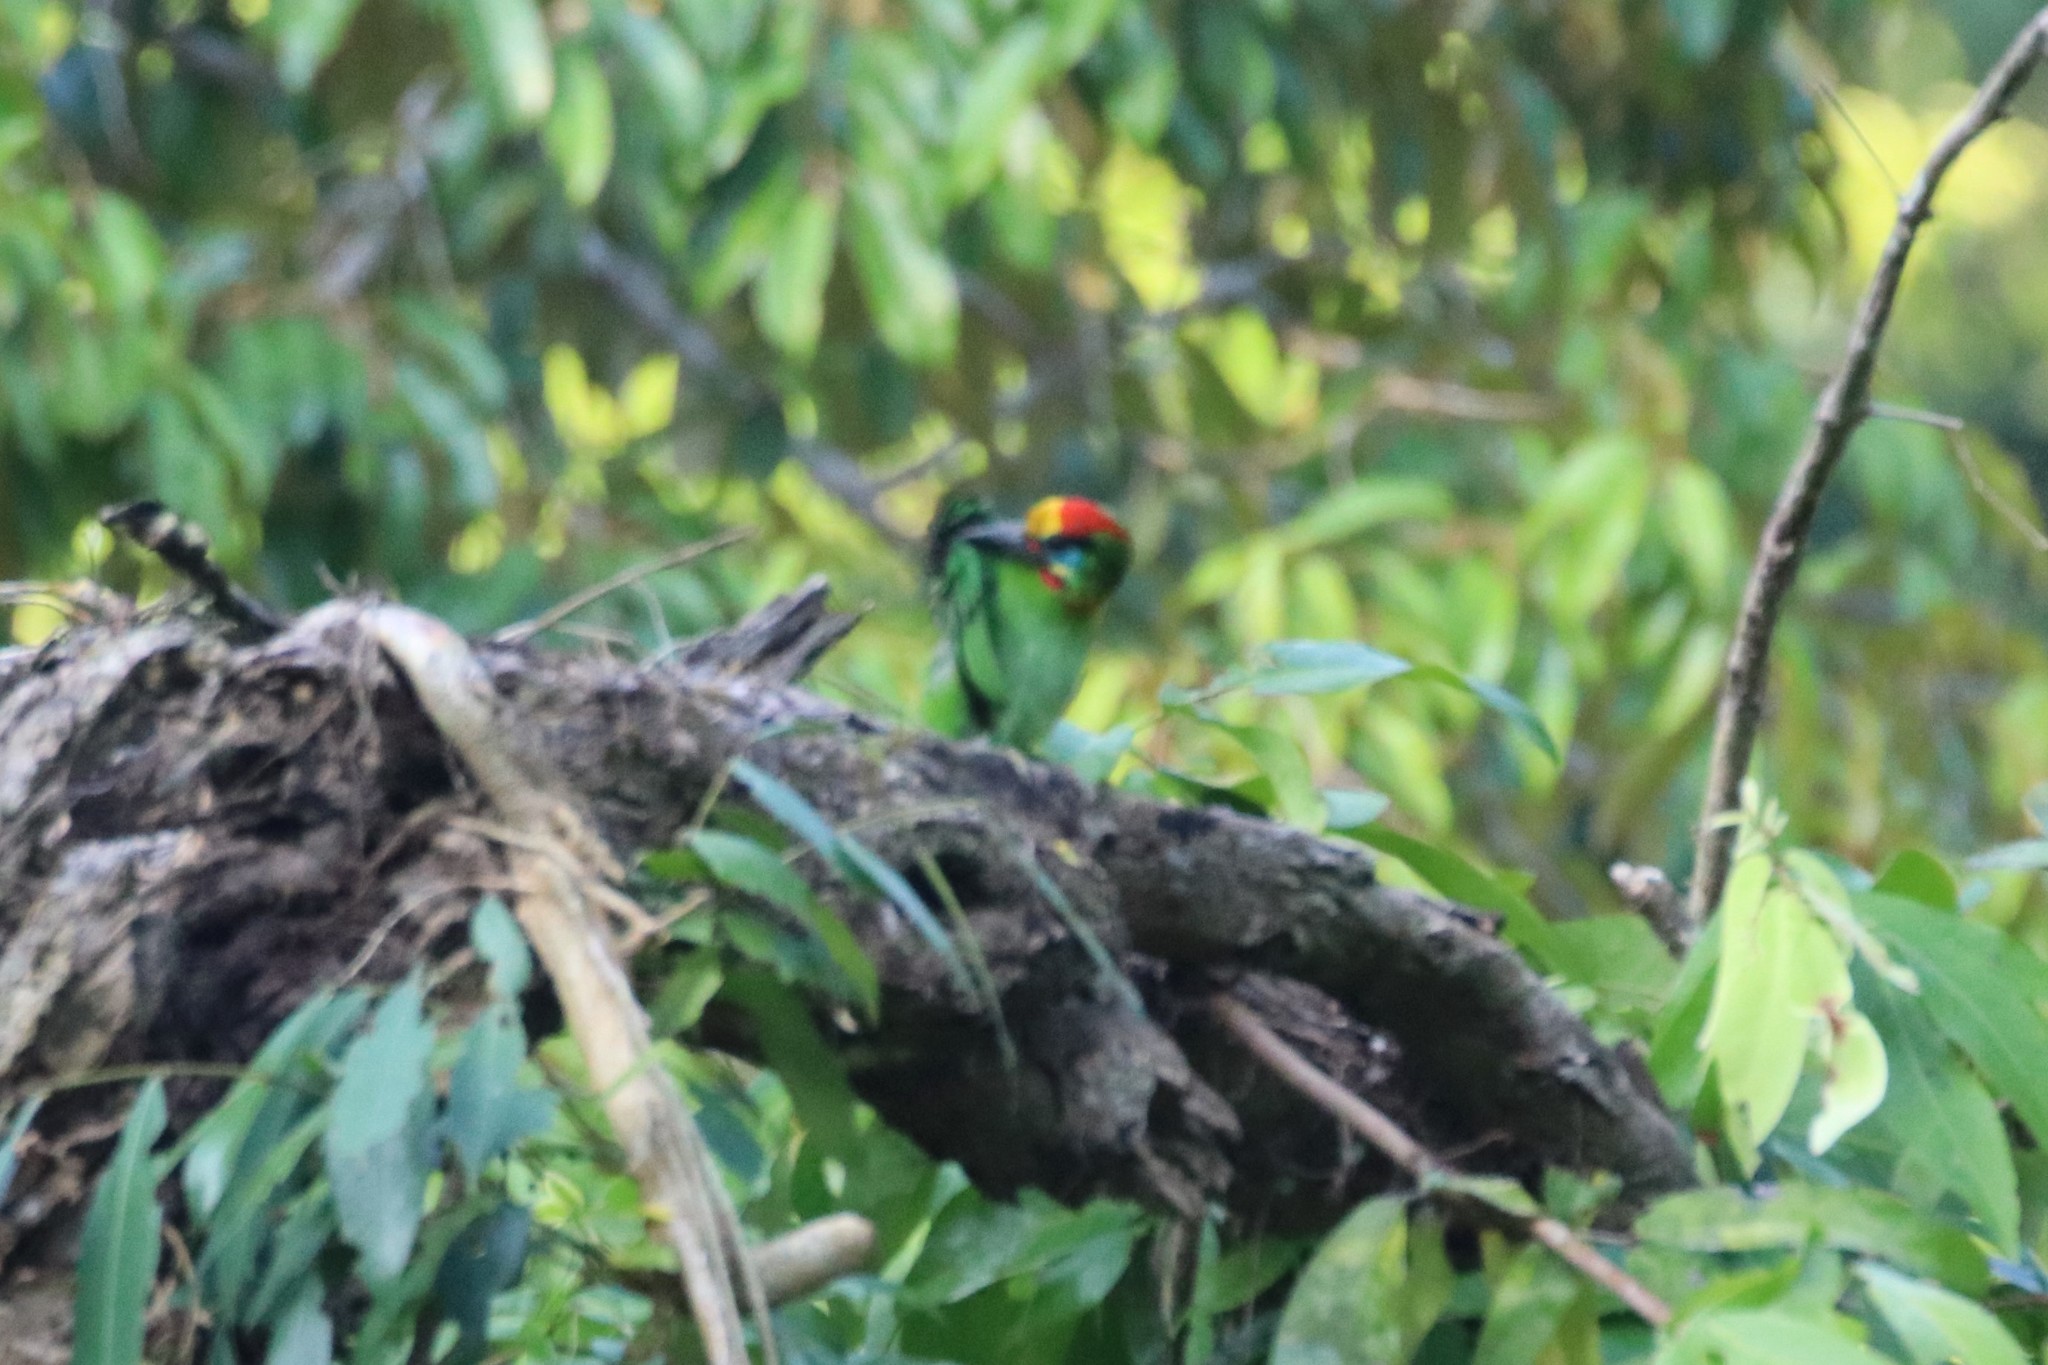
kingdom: Animalia
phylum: Chordata
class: Aves
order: Piciformes
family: Megalaimidae
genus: Psilopogon
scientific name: Psilopogon mystacophanos
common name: Red-throated barbet
